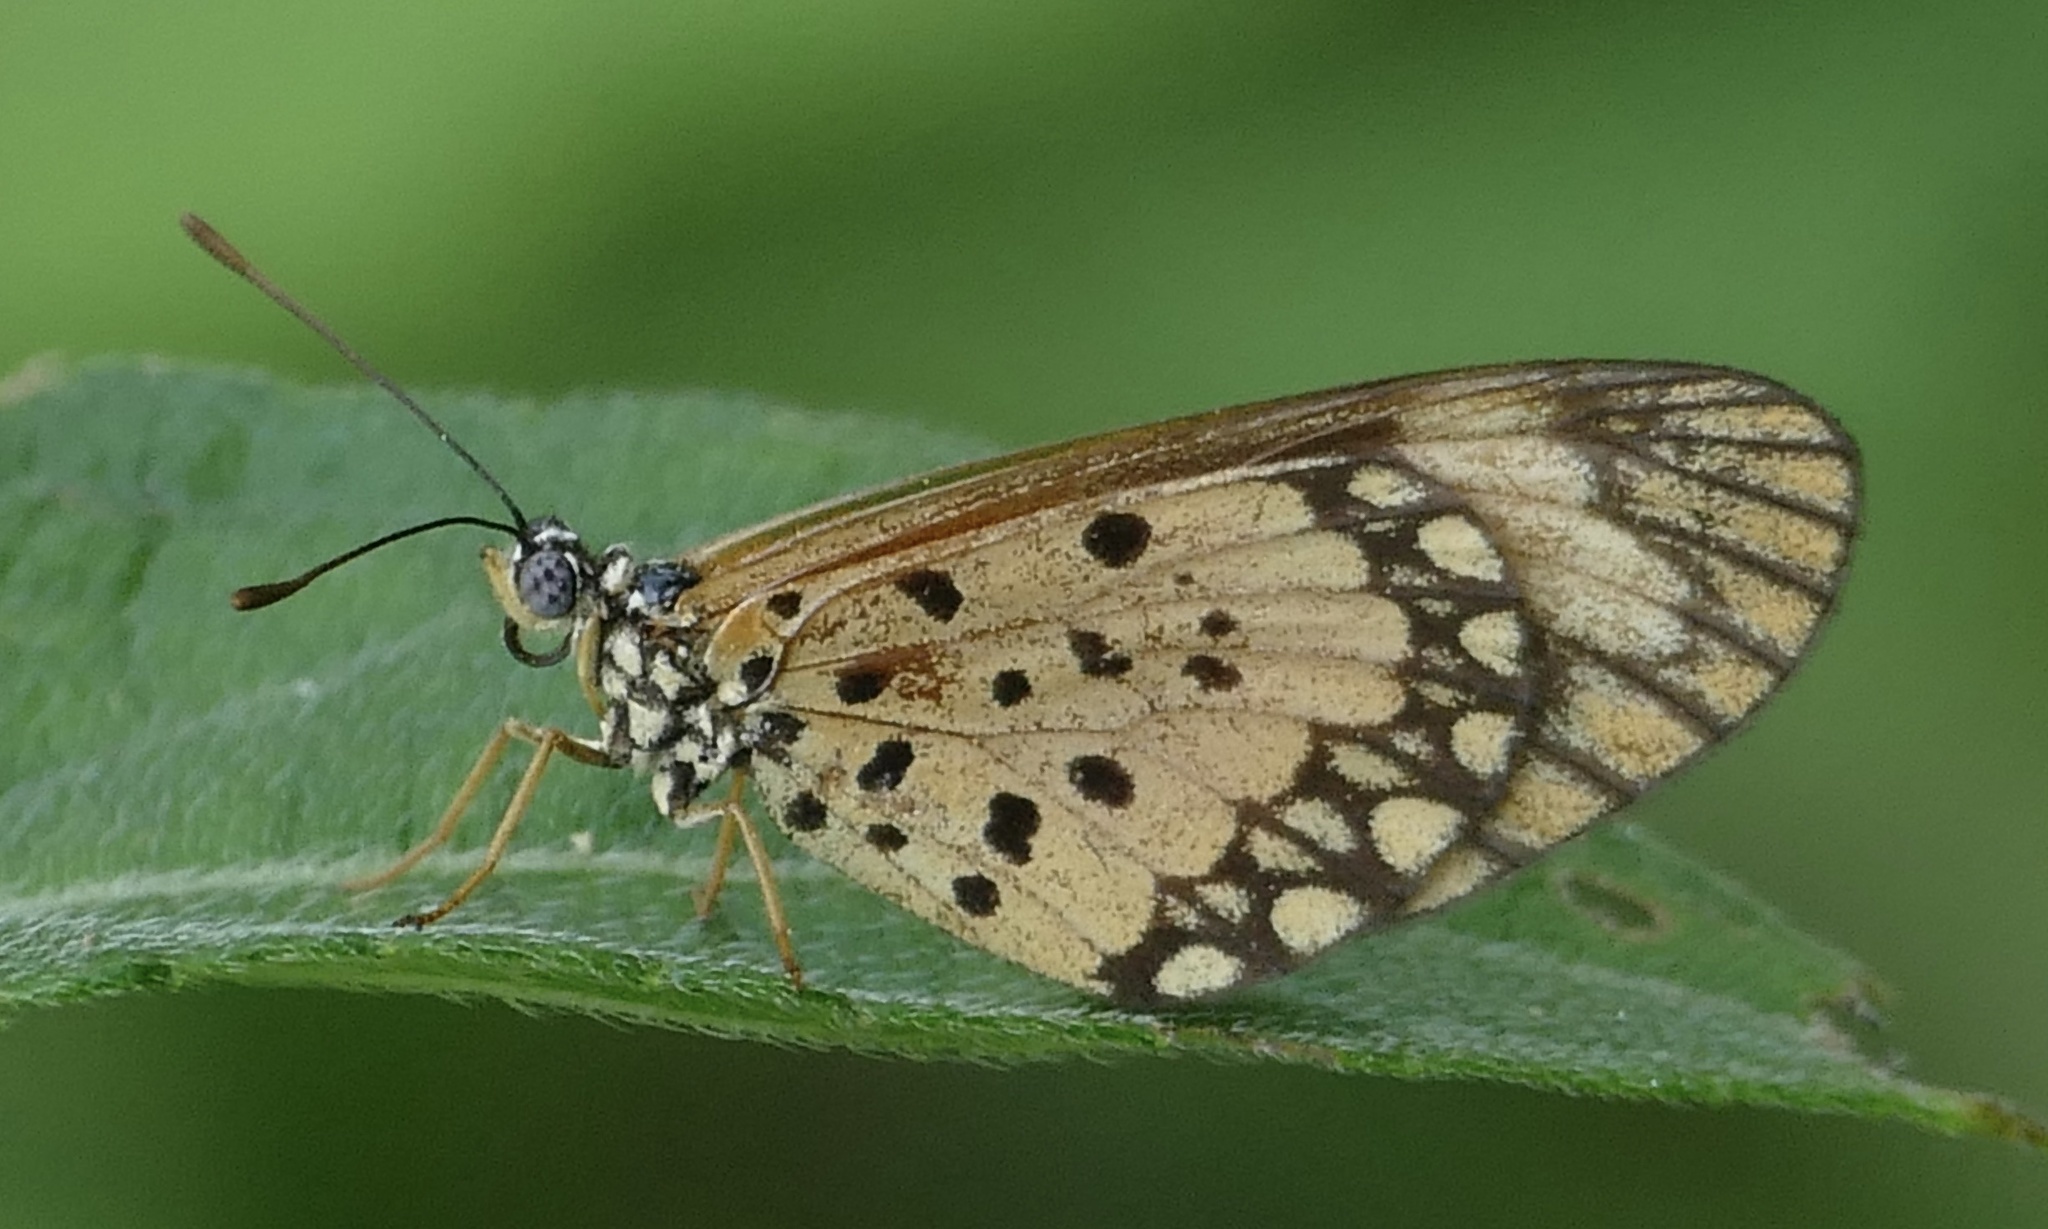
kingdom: Animalia
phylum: Arthropoda
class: Insecta
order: Lepidoptera
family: Nymphalidae
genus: Acraea
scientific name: Acraea Telchinia serena
